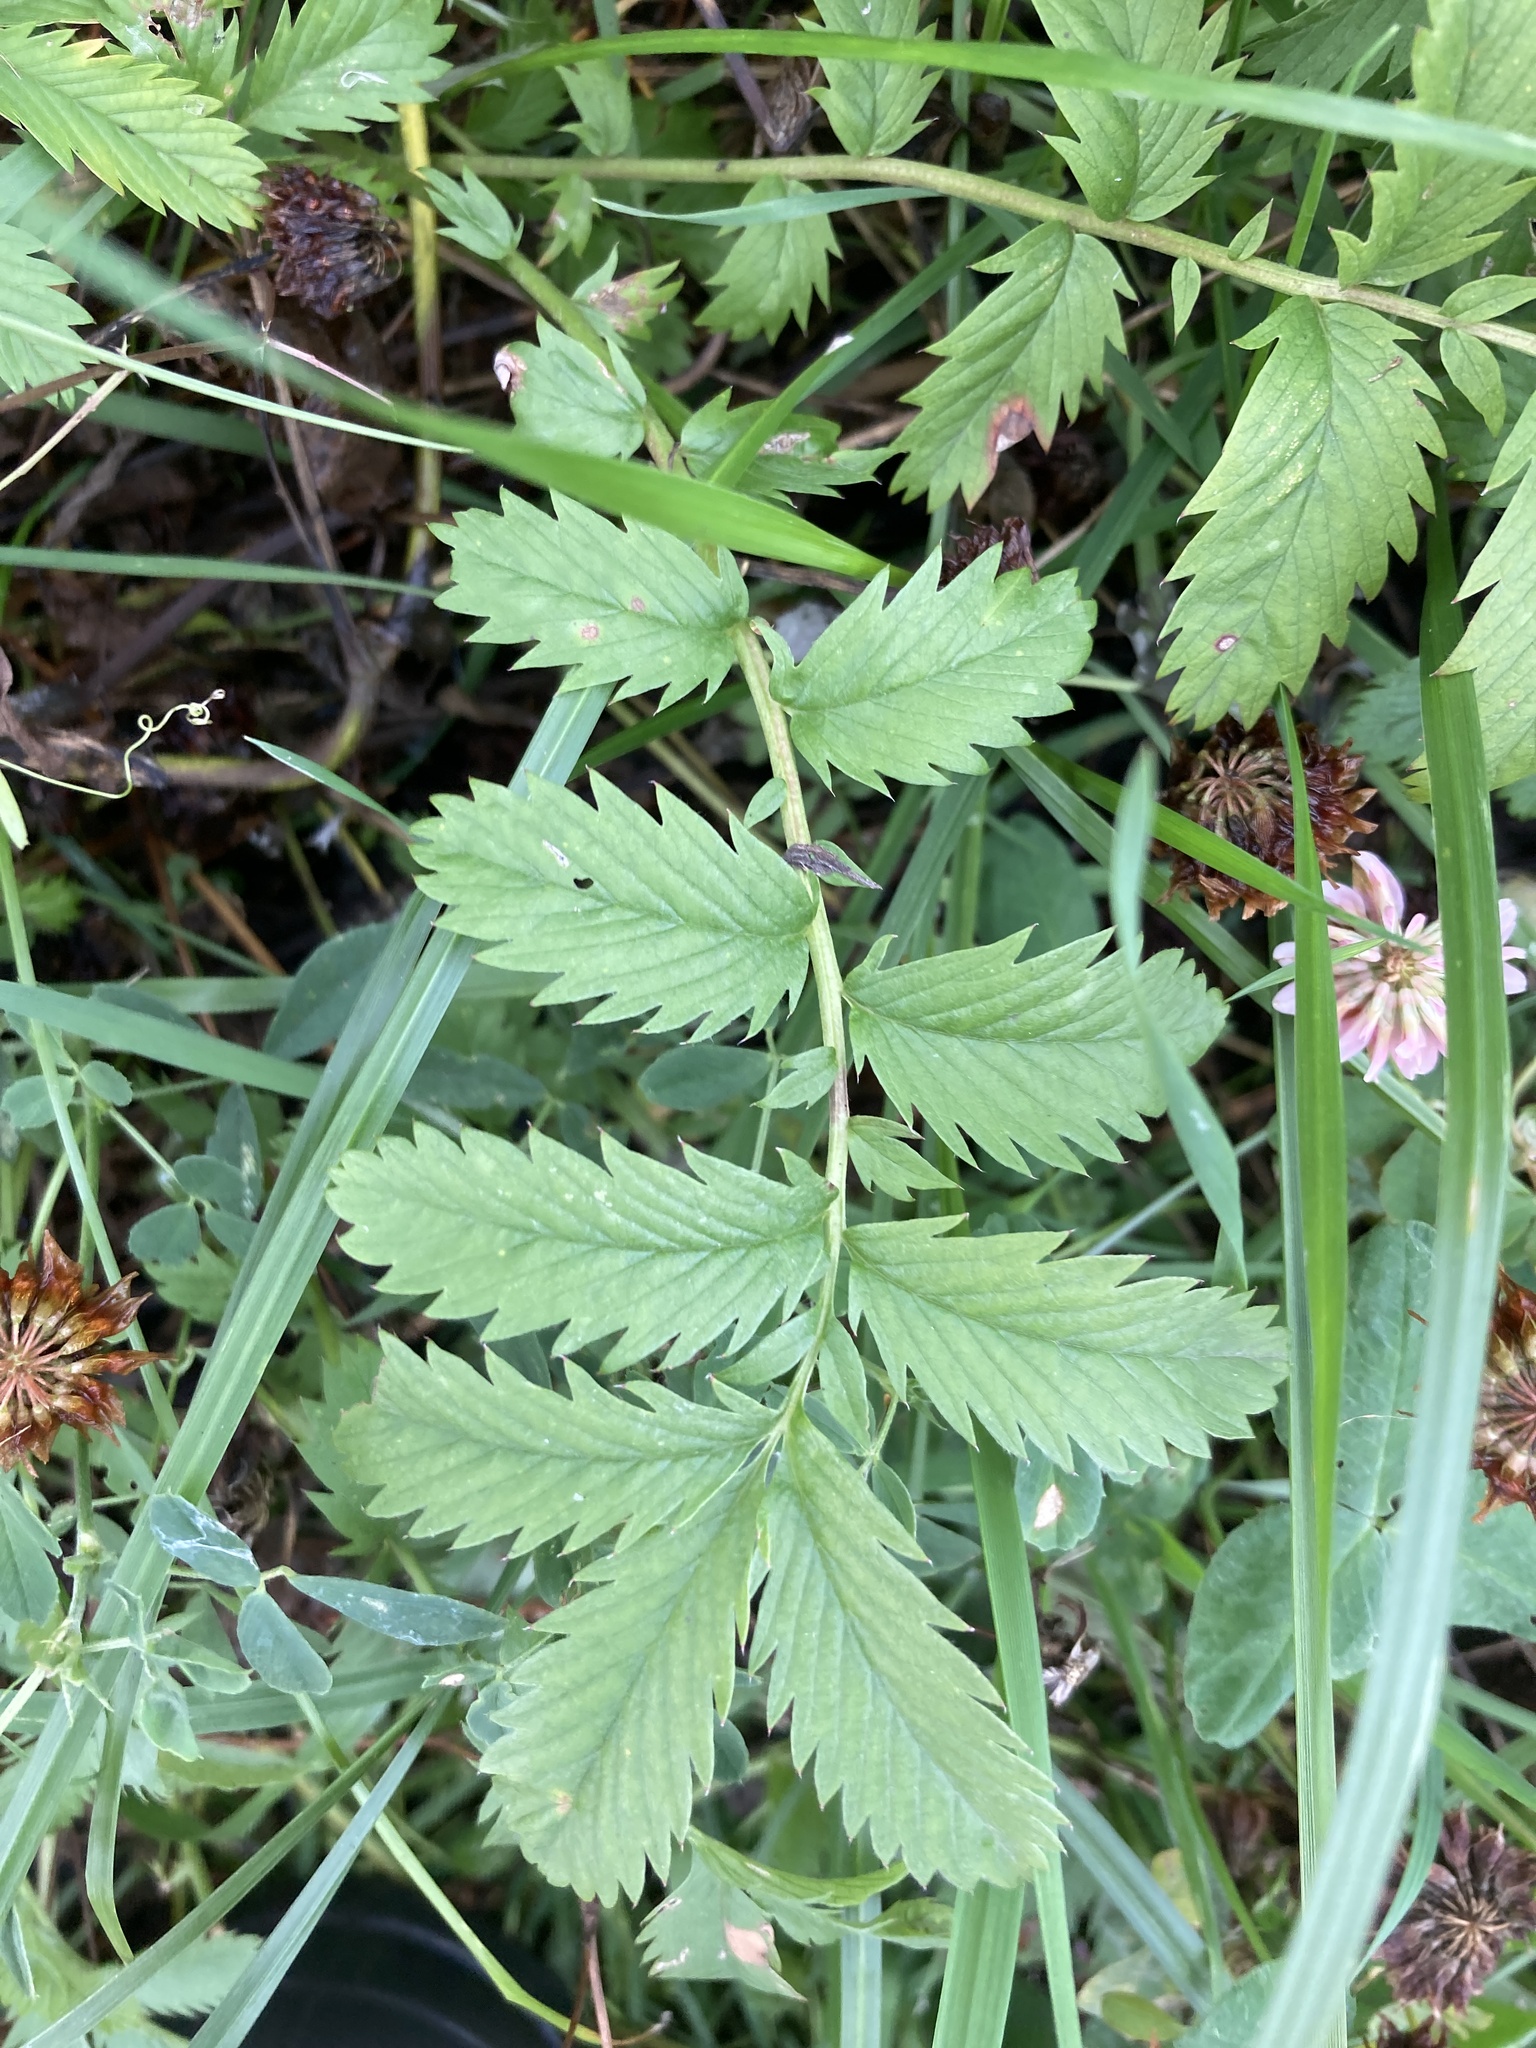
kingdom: Plantae
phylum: Tracheophyta
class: Magnoliopsida
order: Rosales
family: Rosaceae
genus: Argentina
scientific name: Argentina anserina
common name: Common silverweed
